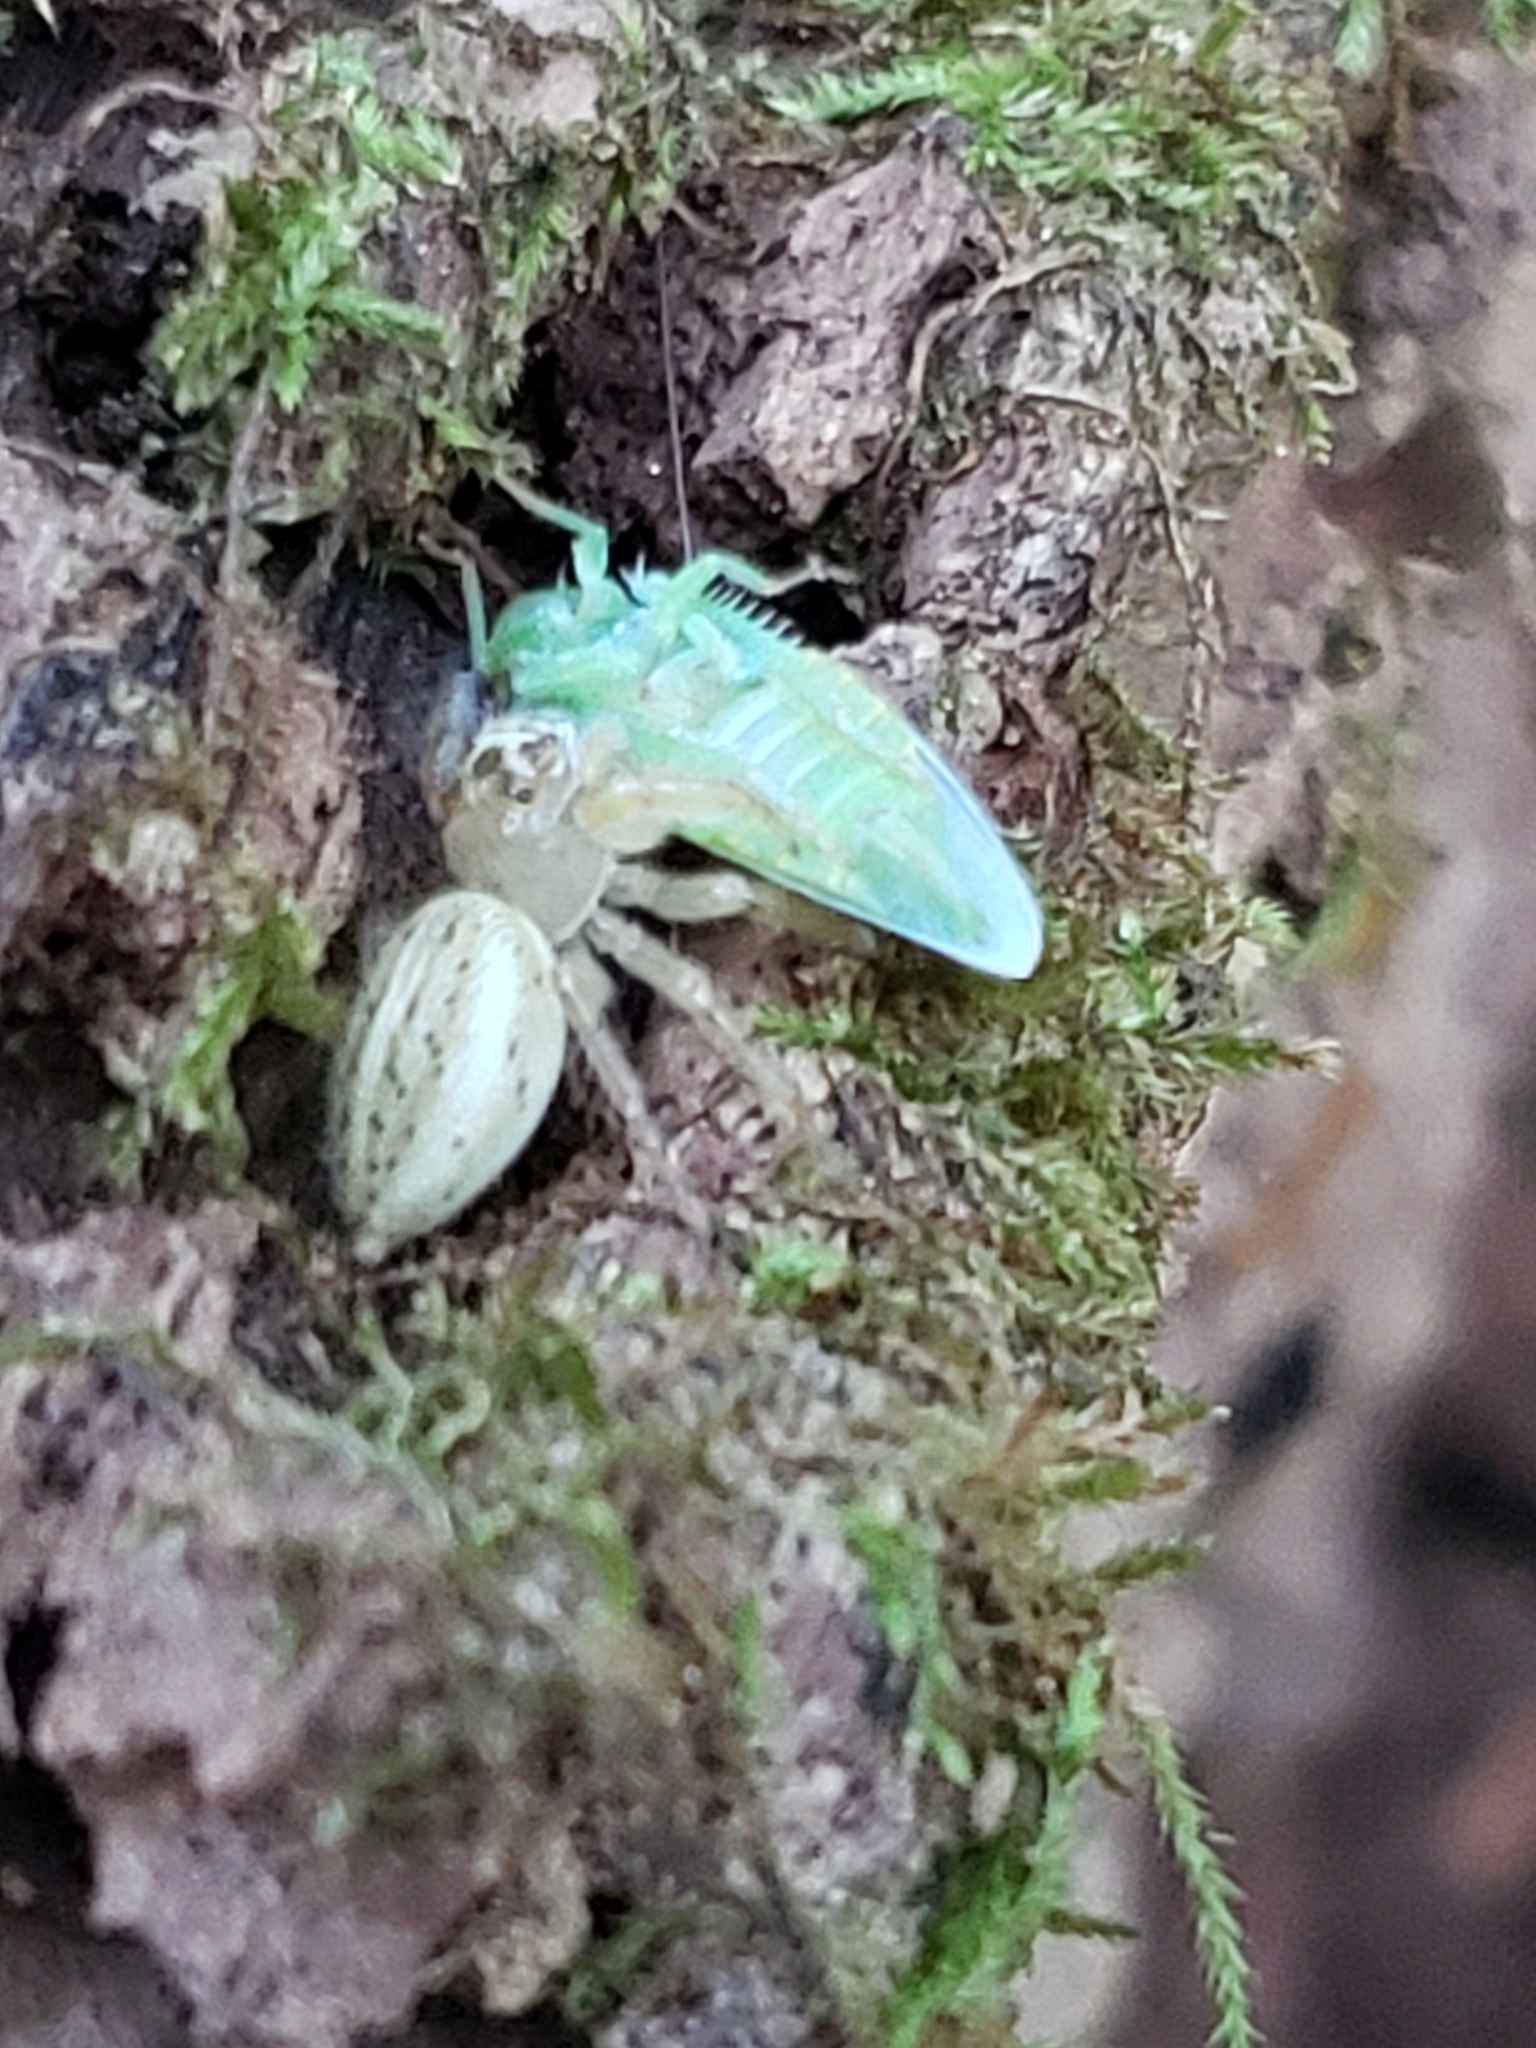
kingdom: Animalia
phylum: Arthropoda
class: Arachnida
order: Araneae
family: Salticidae
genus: Colonus
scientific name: Colonus sylvanus
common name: Jumping spiders
